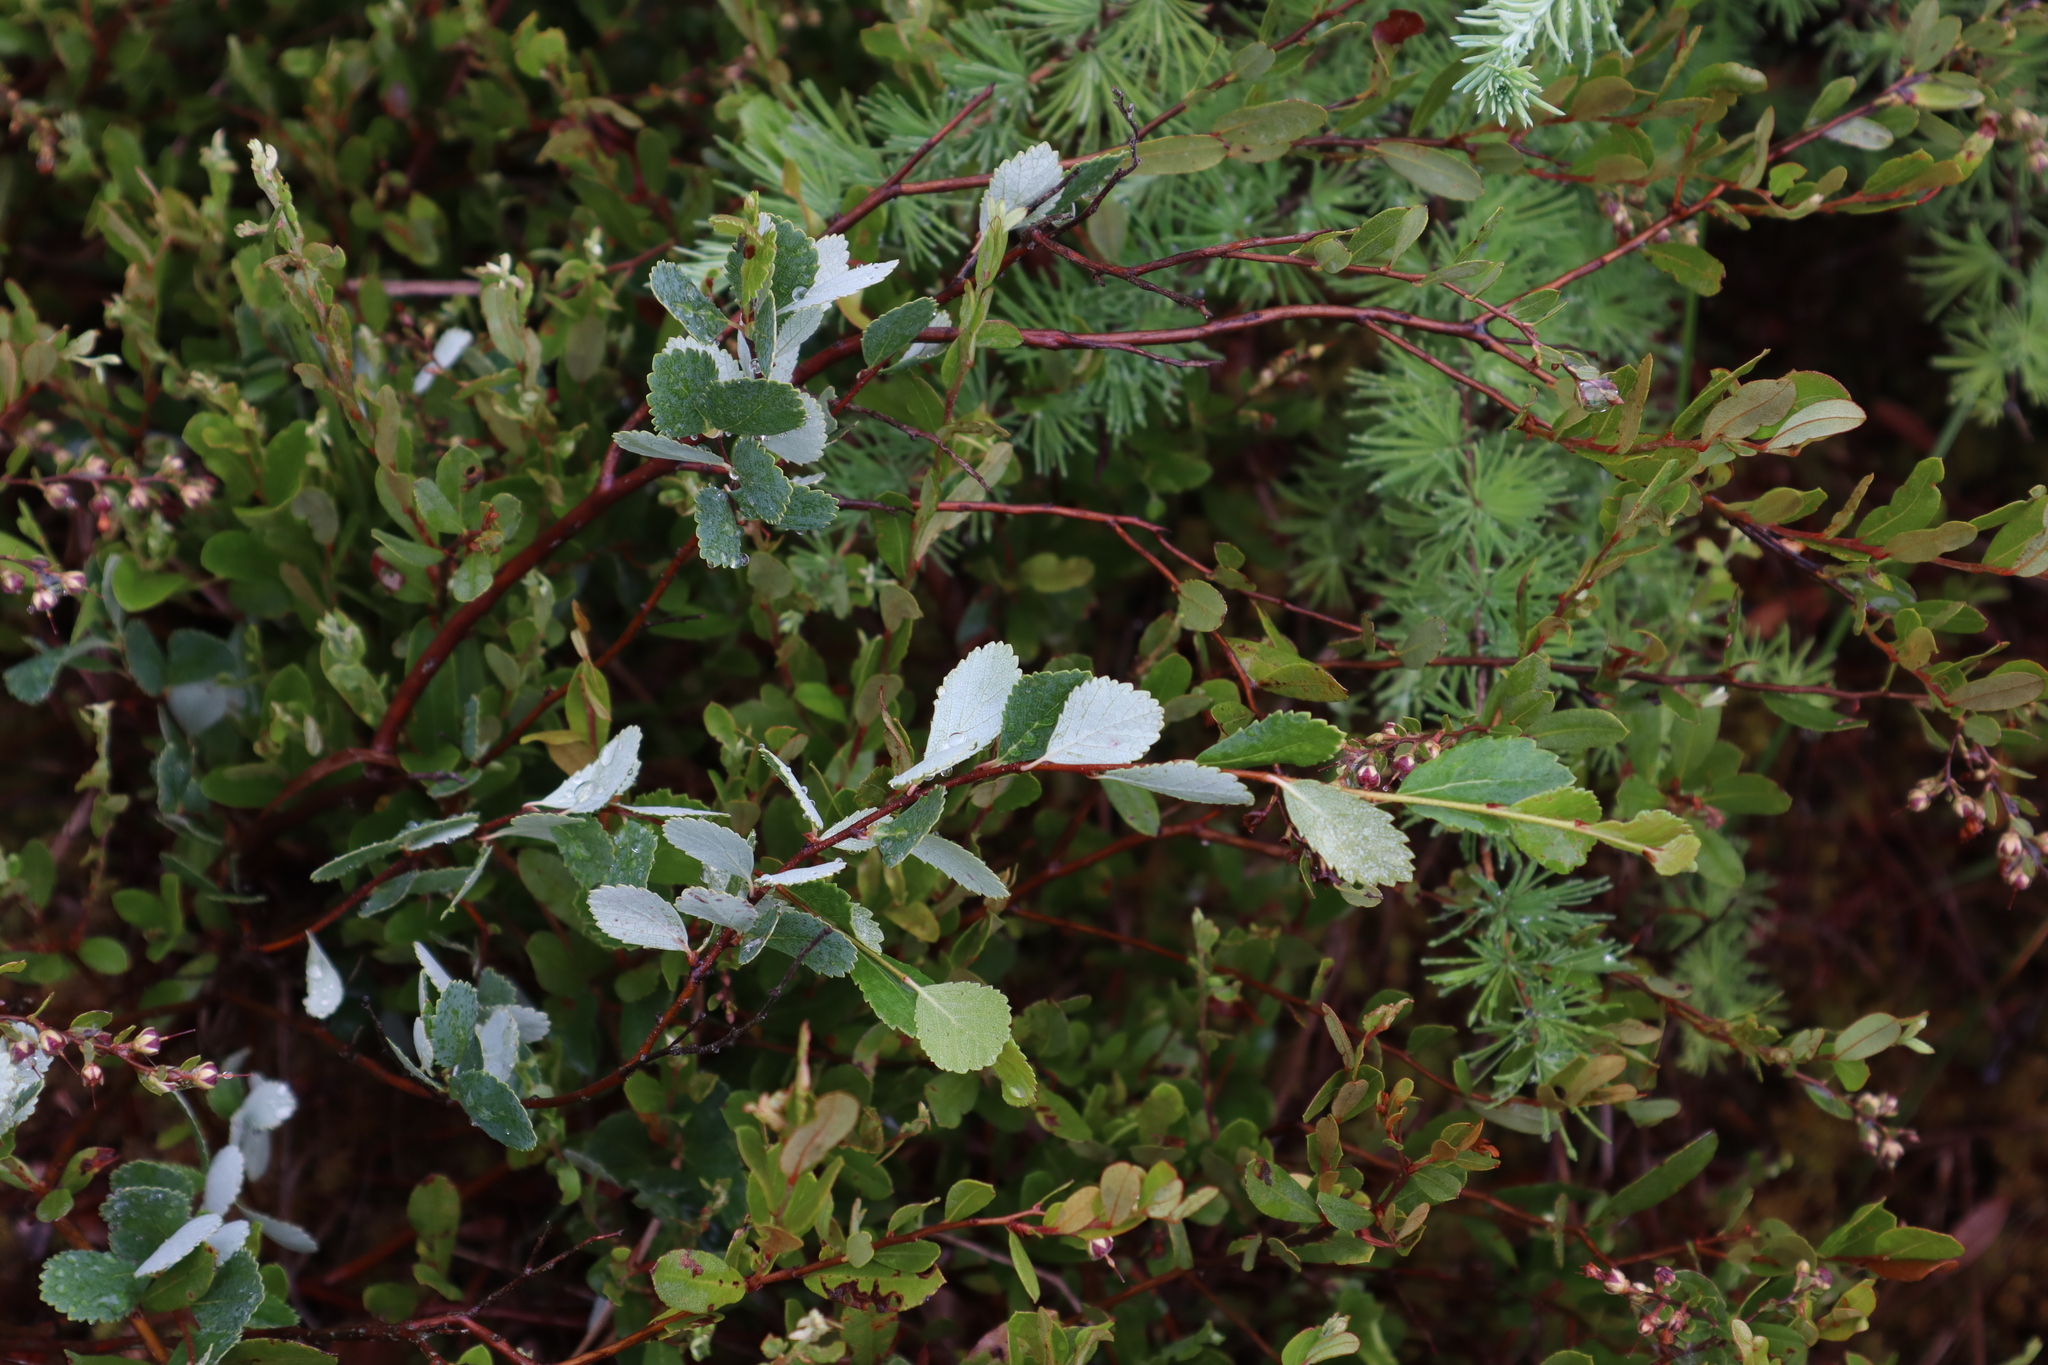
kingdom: Plantae
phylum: Tracheophyta
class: Magnoliopsida
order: Fagales
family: Betulaceae
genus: Betula
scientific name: Betula pumila
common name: Bog birch
